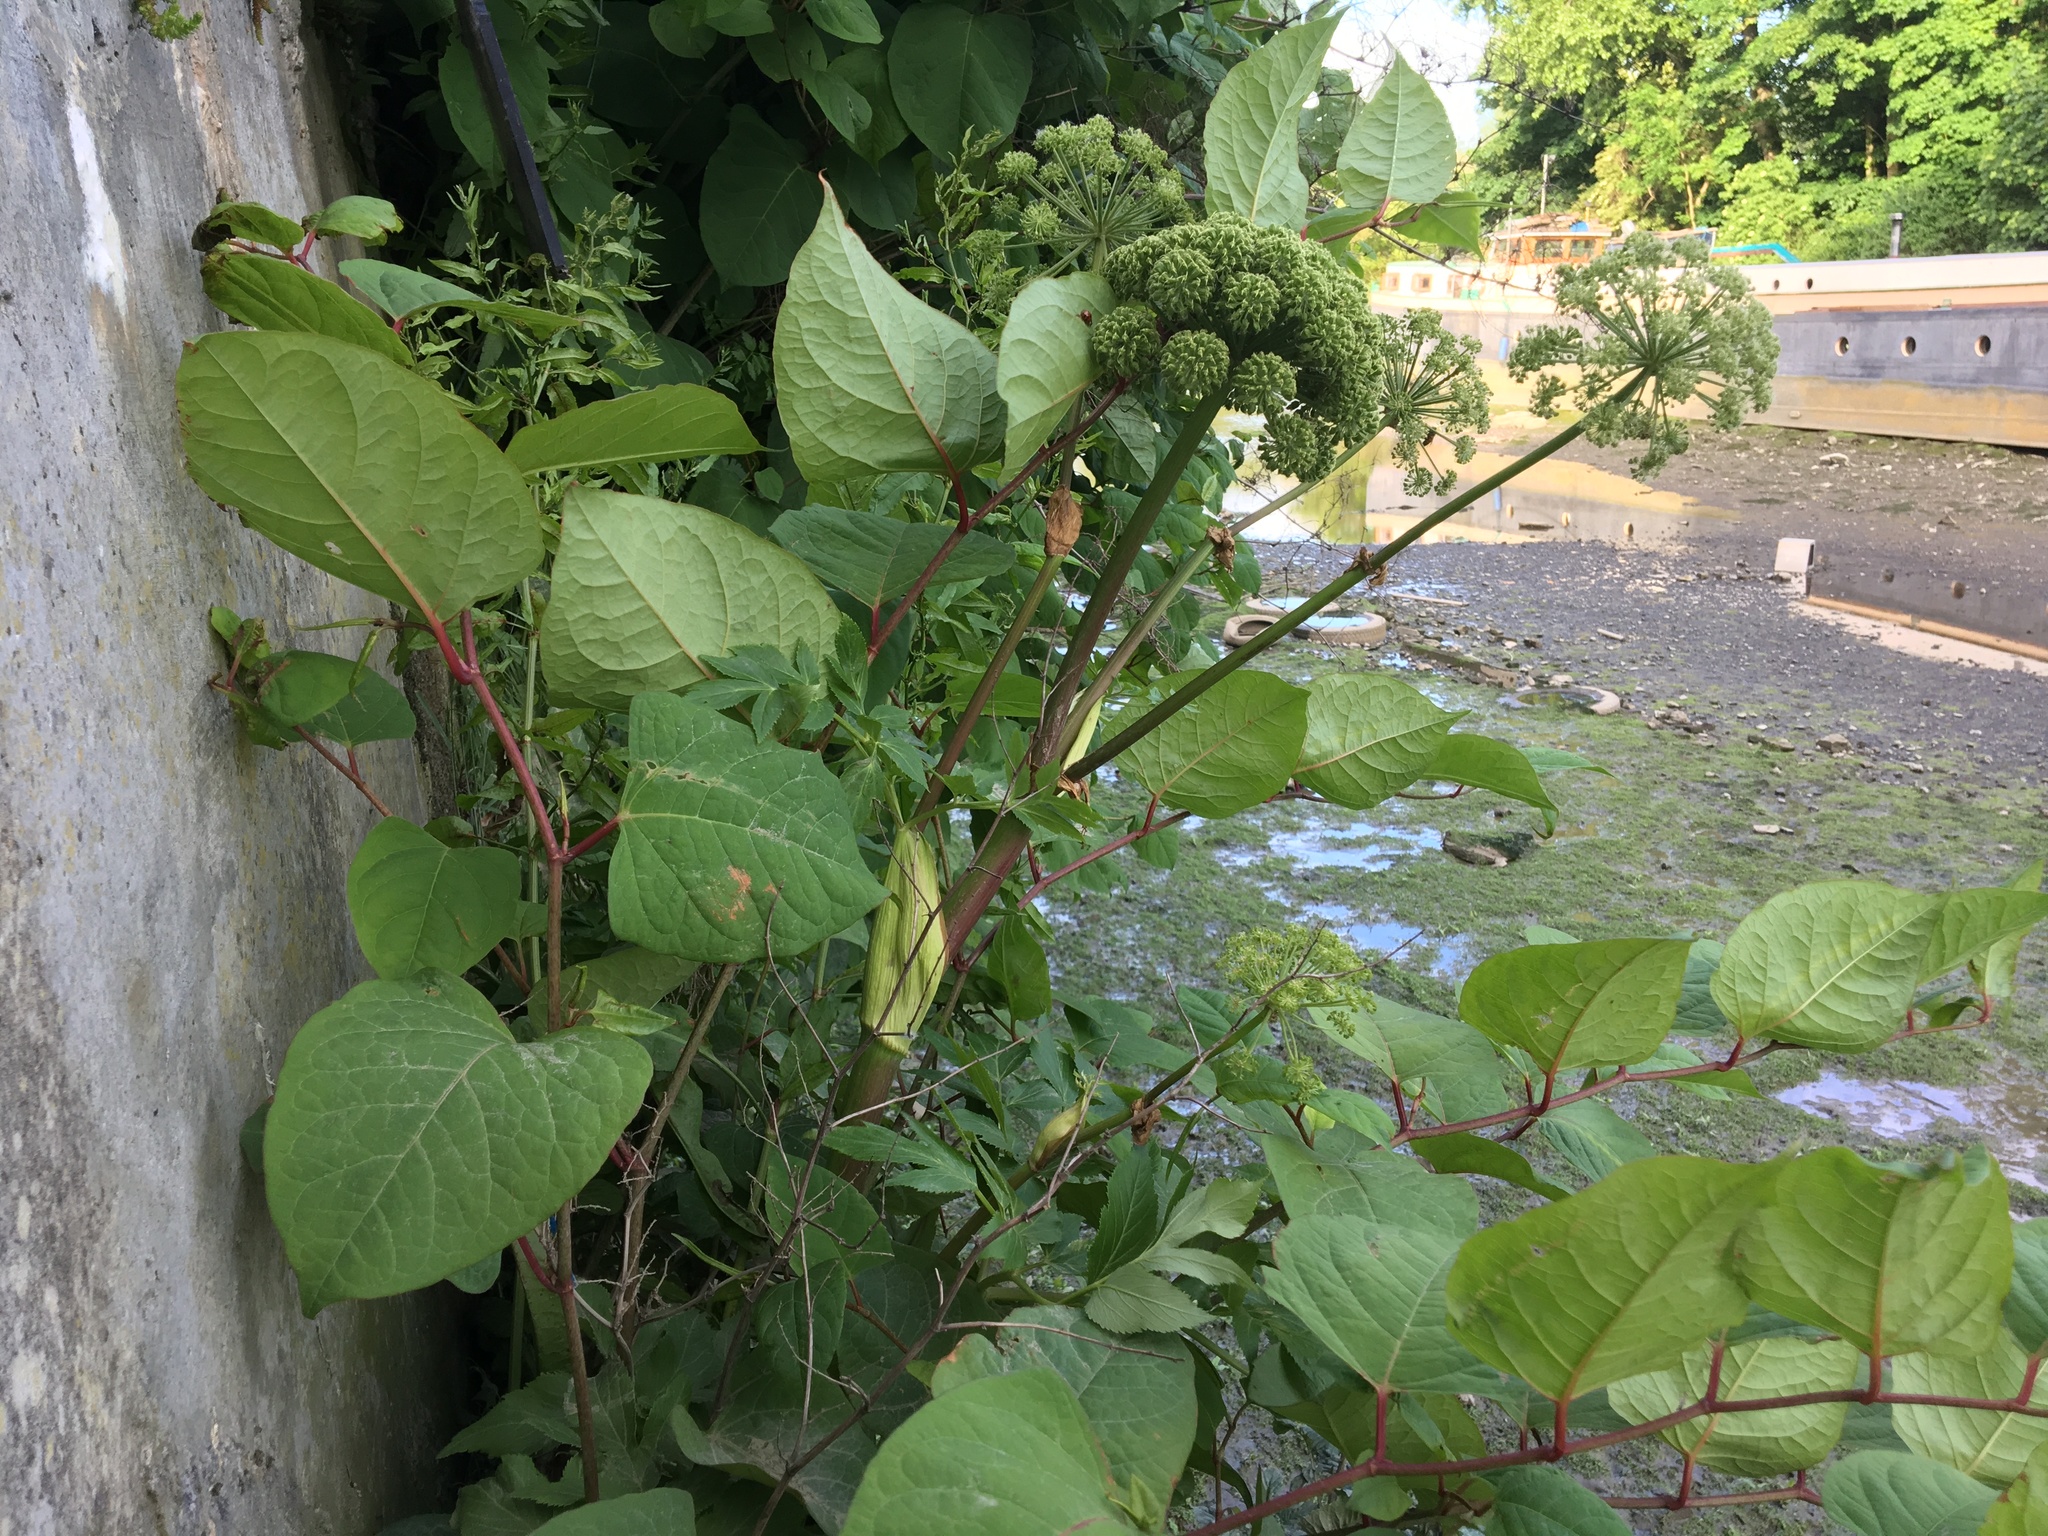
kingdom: Plantae
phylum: Tracheophyta
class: Magnoliopsida
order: Apiales
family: Apiaceae
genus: Angelica
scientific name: Angelica archangelica
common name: Garden angelica
